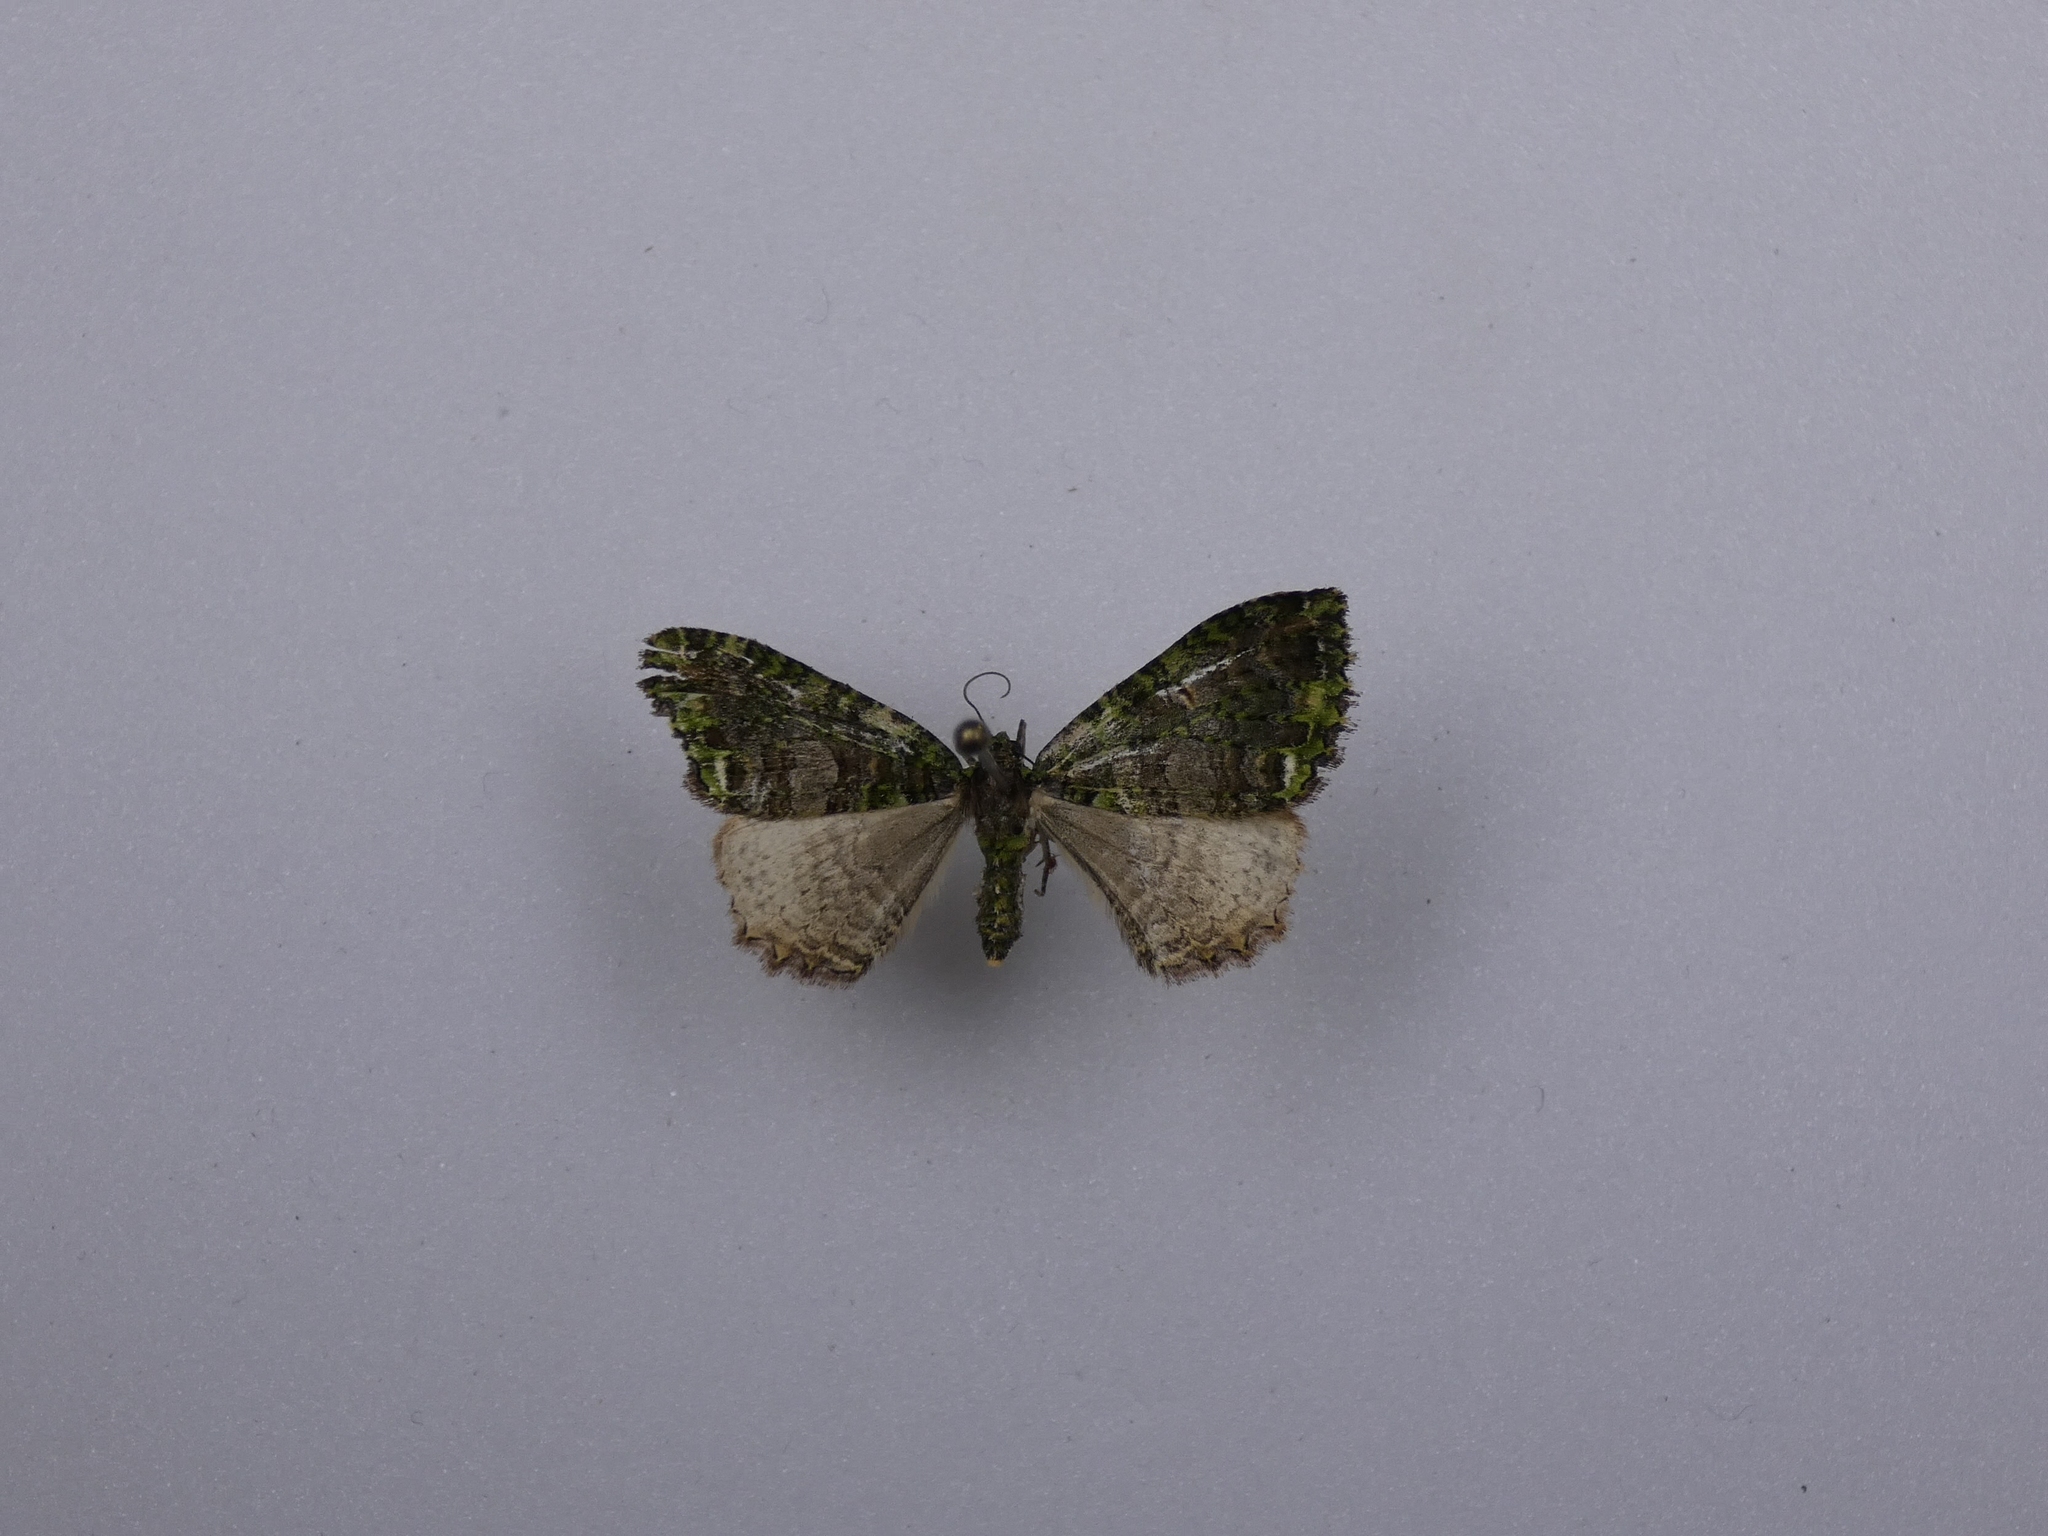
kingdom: Animalia
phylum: Arthropoda
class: Insecta
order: Lepidoptera
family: Geometridae
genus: Austrocidaria
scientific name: Austrocidaria similata
